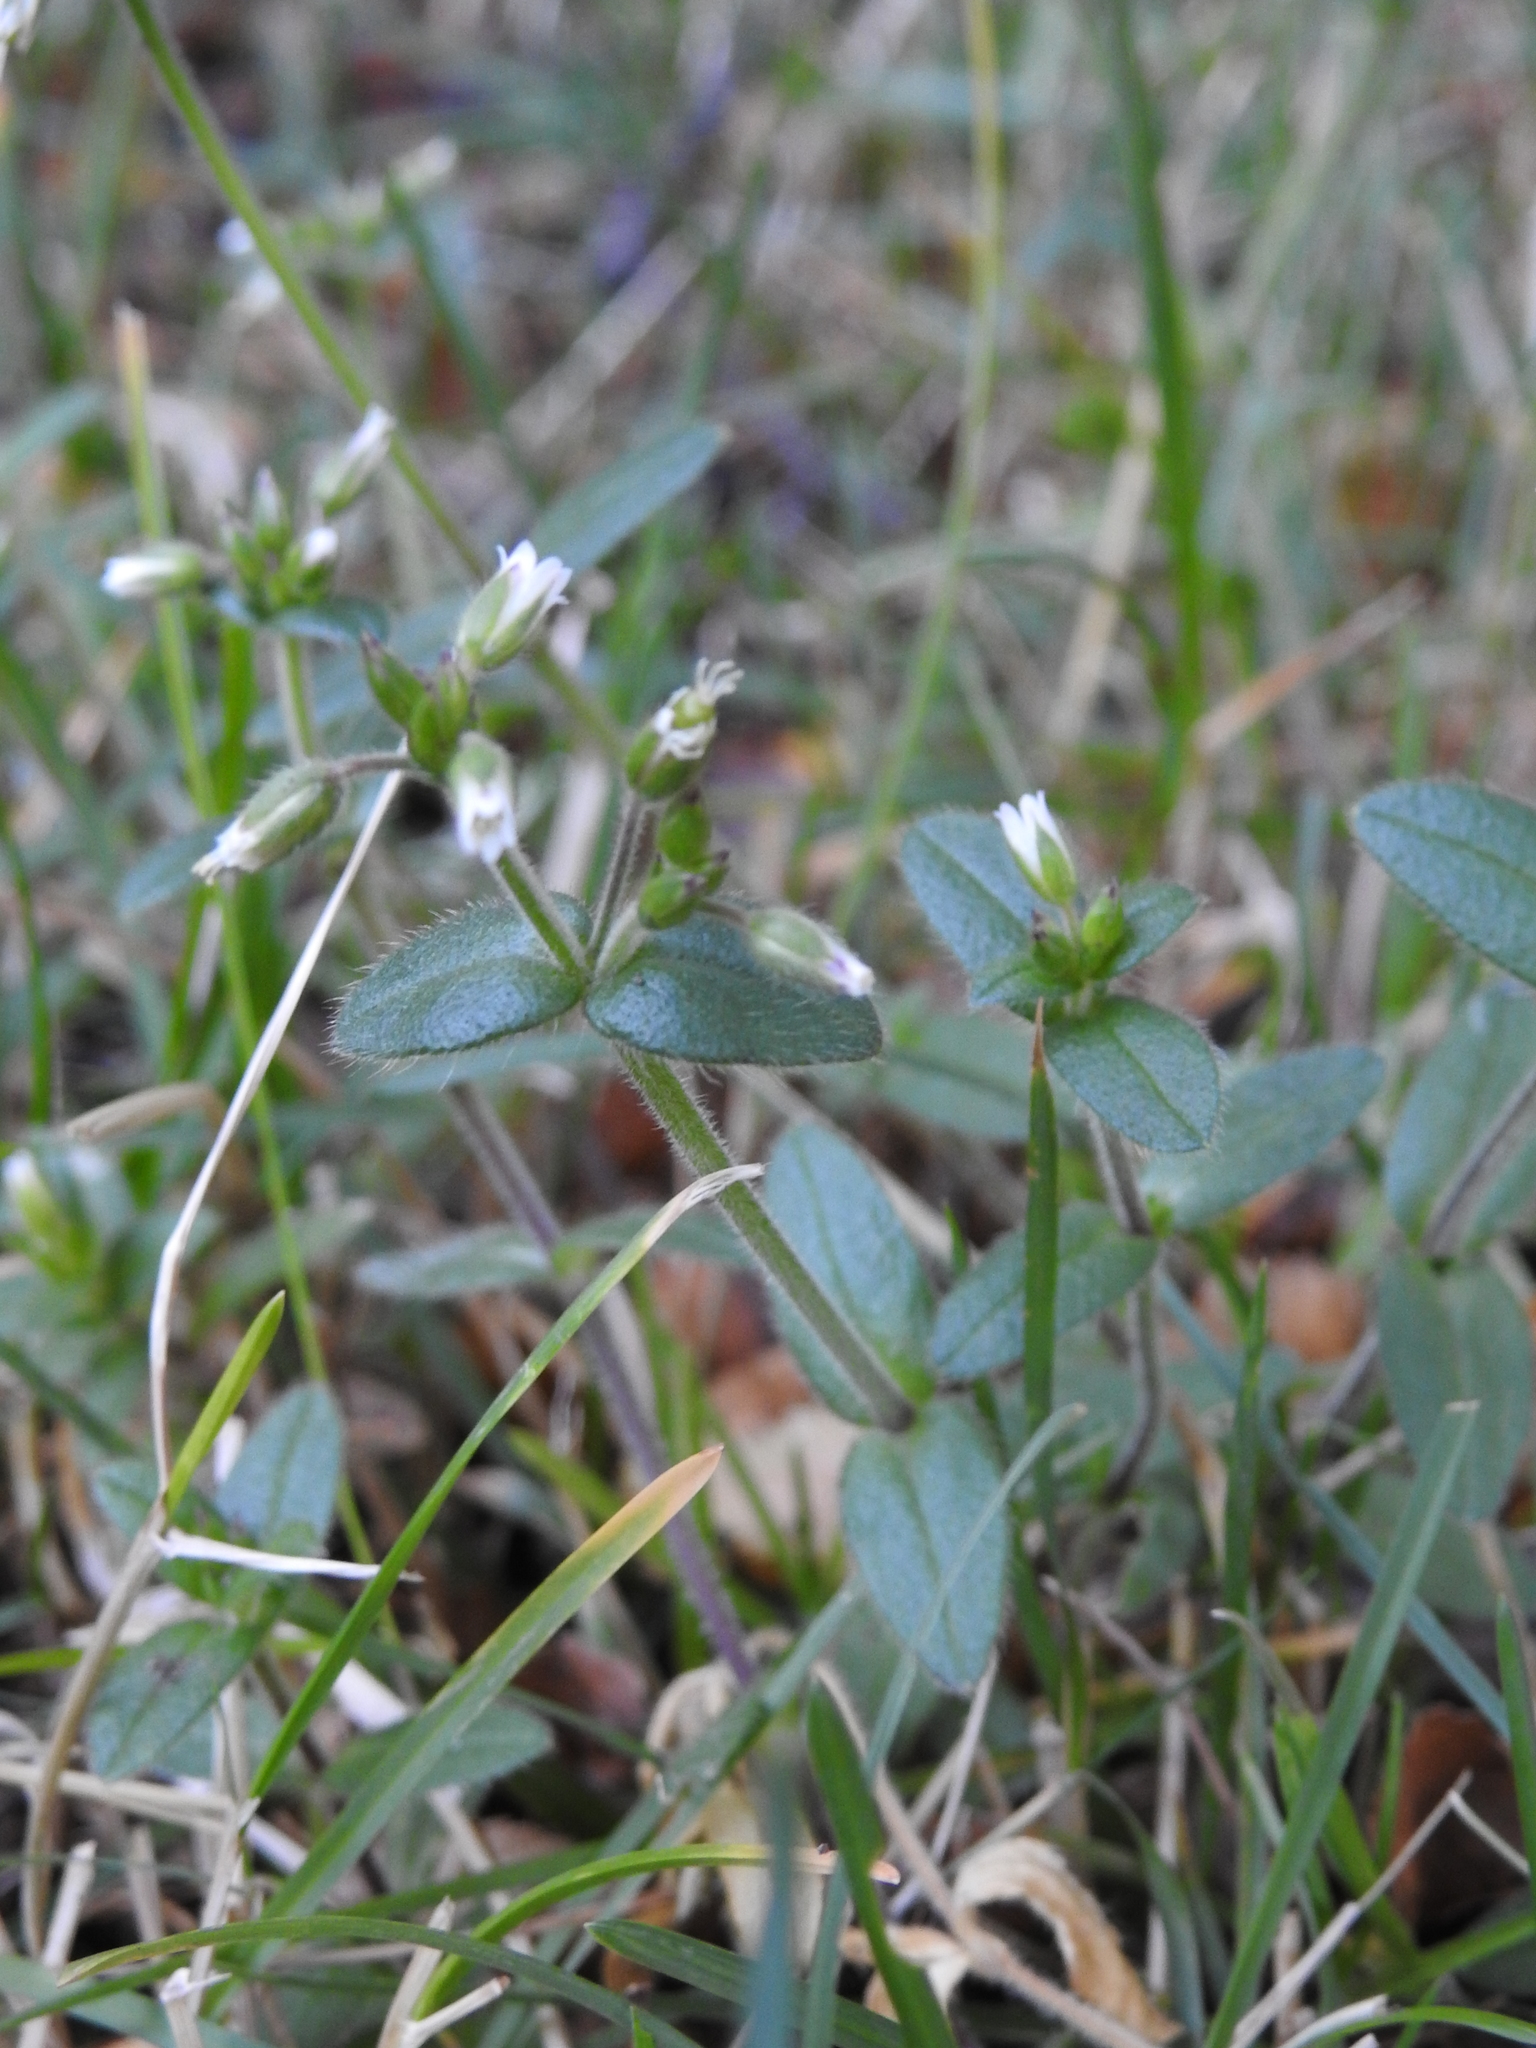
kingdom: Plantae
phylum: Tracheophyta
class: Magnoliopsida
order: Caryophyllales
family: Caryophyllaceae
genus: Cerastium
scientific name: Cerastium fontanum
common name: Common mouse-ear
